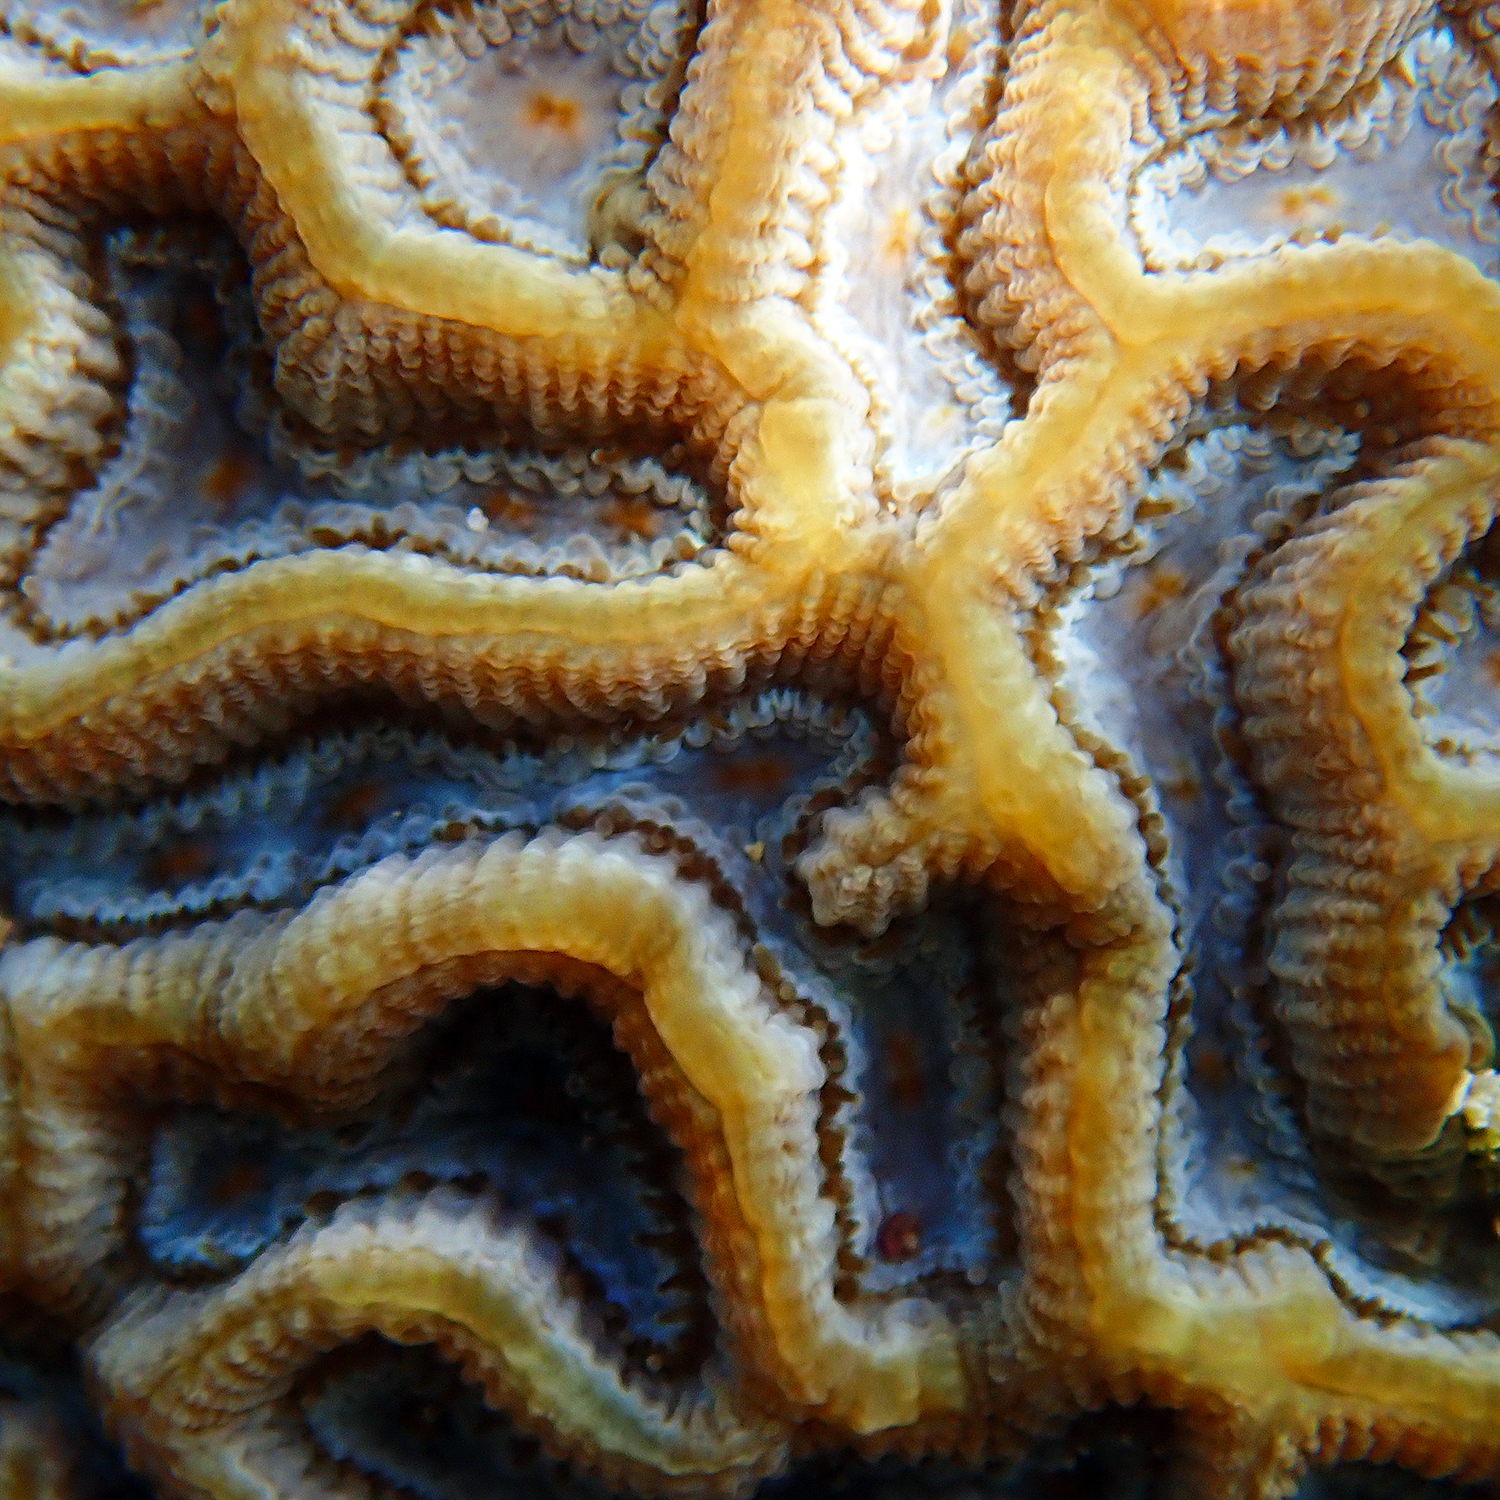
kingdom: Animalia
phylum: Cnidaria
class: Anthozoa
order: Scleractinia
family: Merulinidae
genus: Paragoniastrea
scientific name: Paragoniastrea australensis
